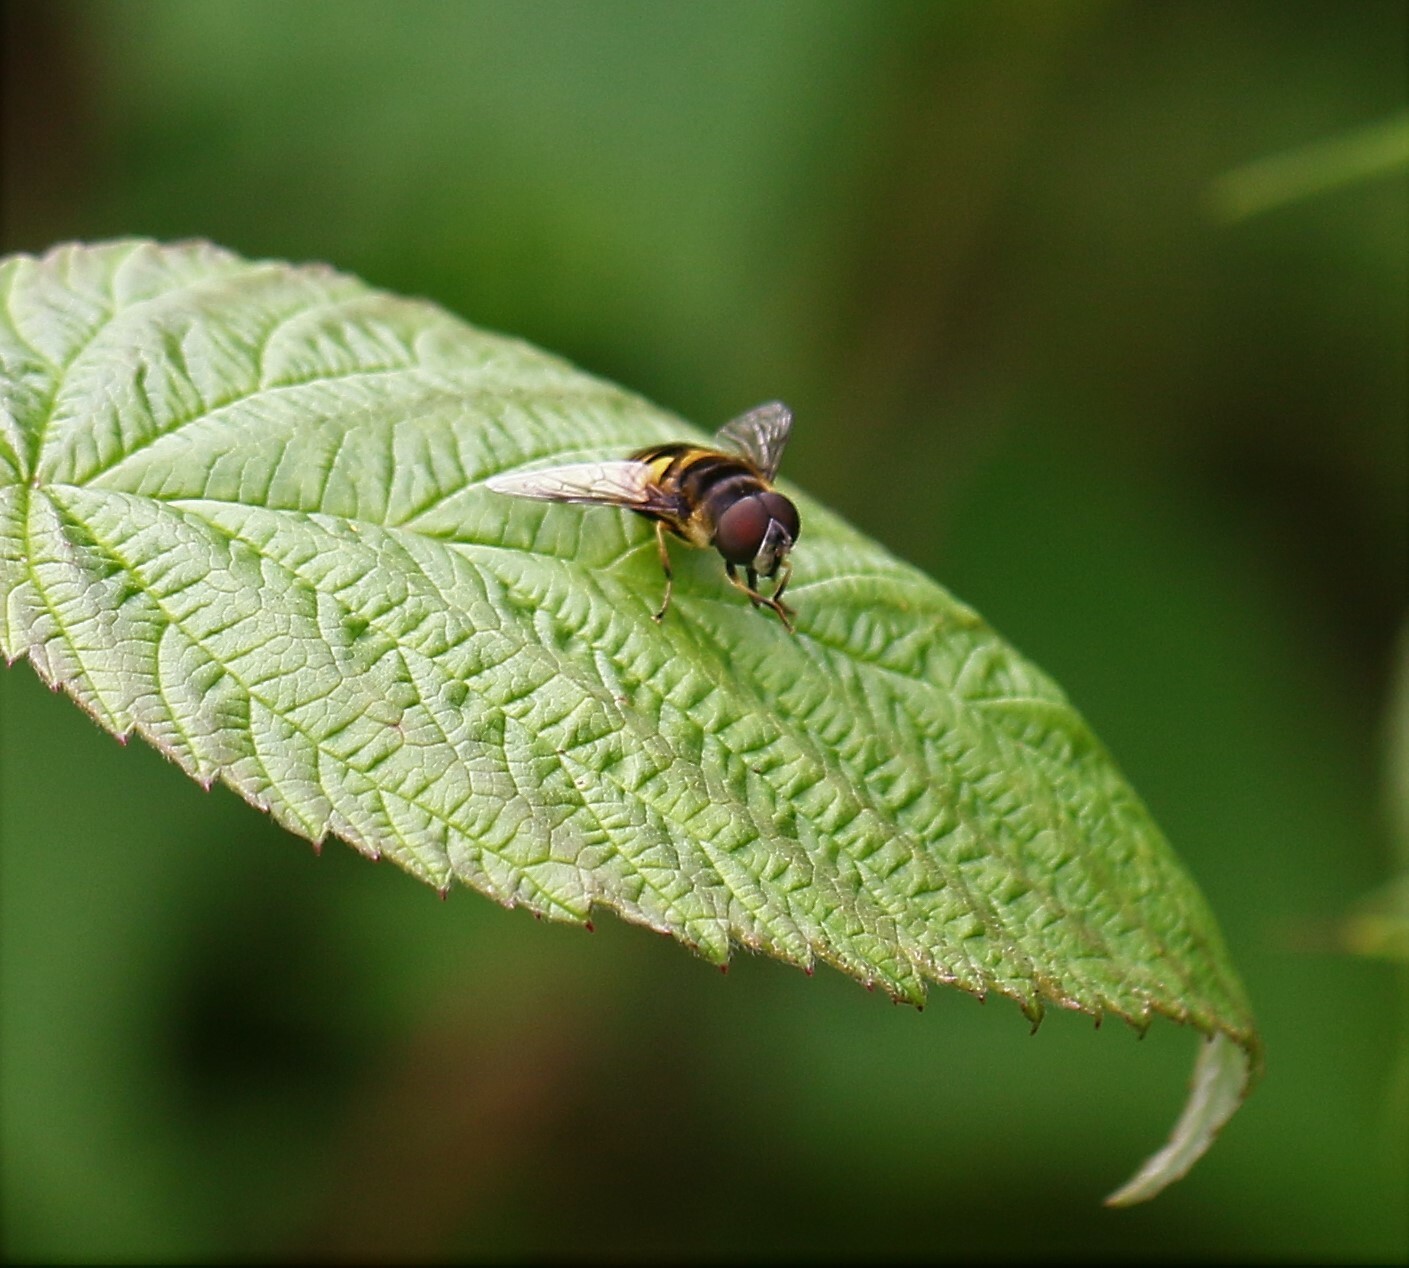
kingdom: Animalia
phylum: Arthropoda
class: Insecta
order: Diptera
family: Syrphidae
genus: Eristalis
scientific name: Eristalis transversa
